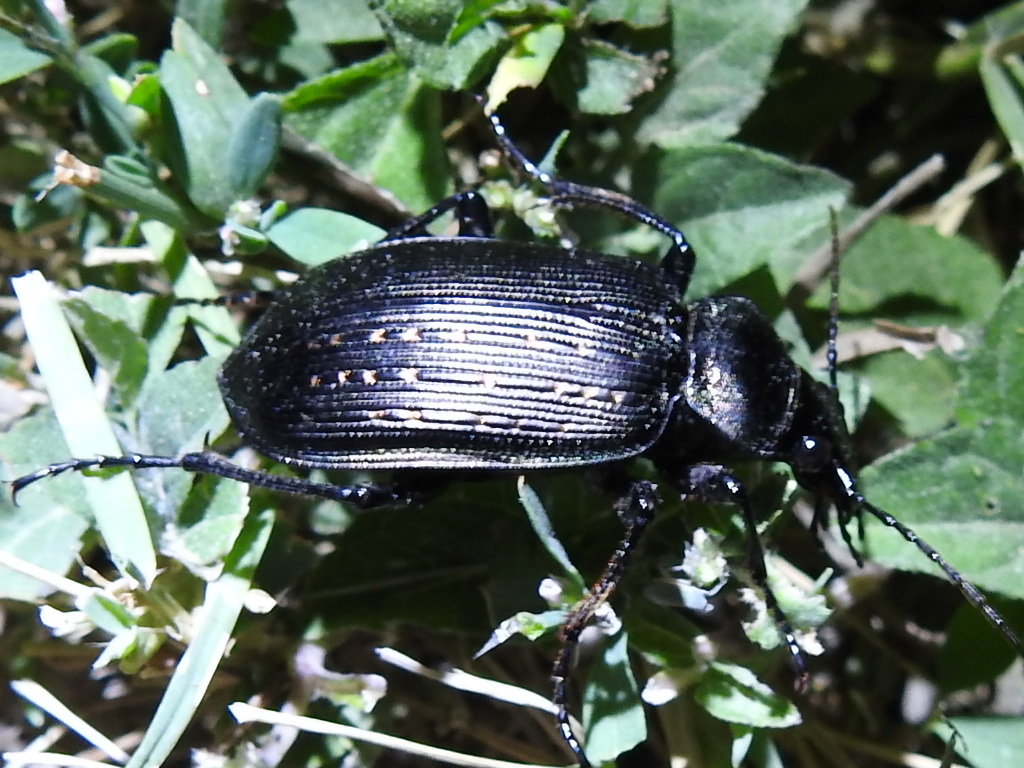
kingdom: Animalia
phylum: Arthropoda
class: Insecta
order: Coleoptera
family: Carabidae
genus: Calosoma
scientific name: Calosoma sayi
